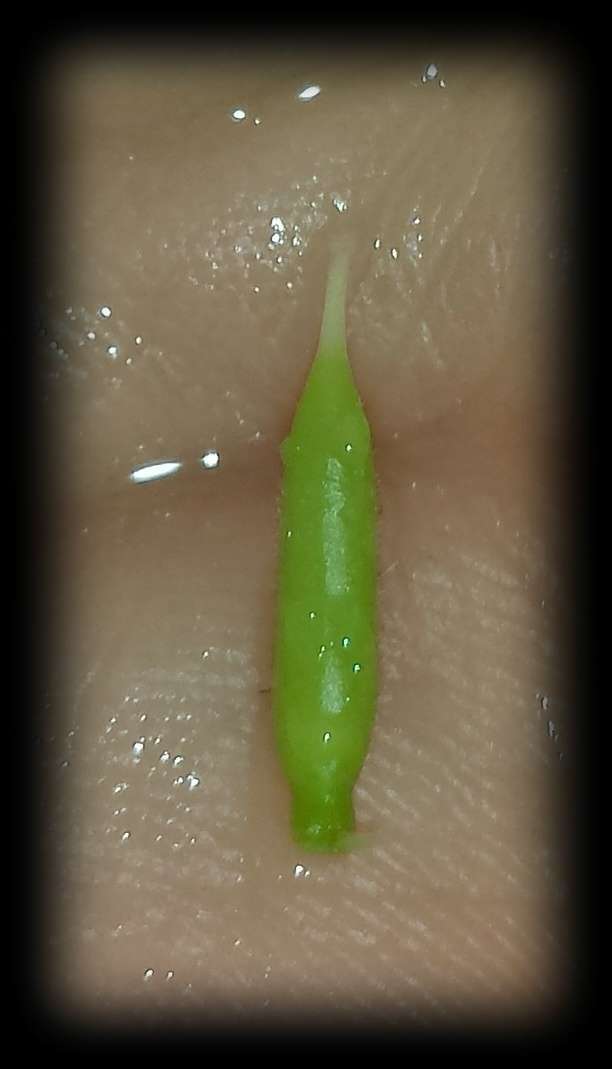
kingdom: Plantae
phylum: Tracheophyta
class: Magnoliopsida
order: Apiales
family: Pittosporaceae
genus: Billardiera
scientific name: Billardiera mutabilis
